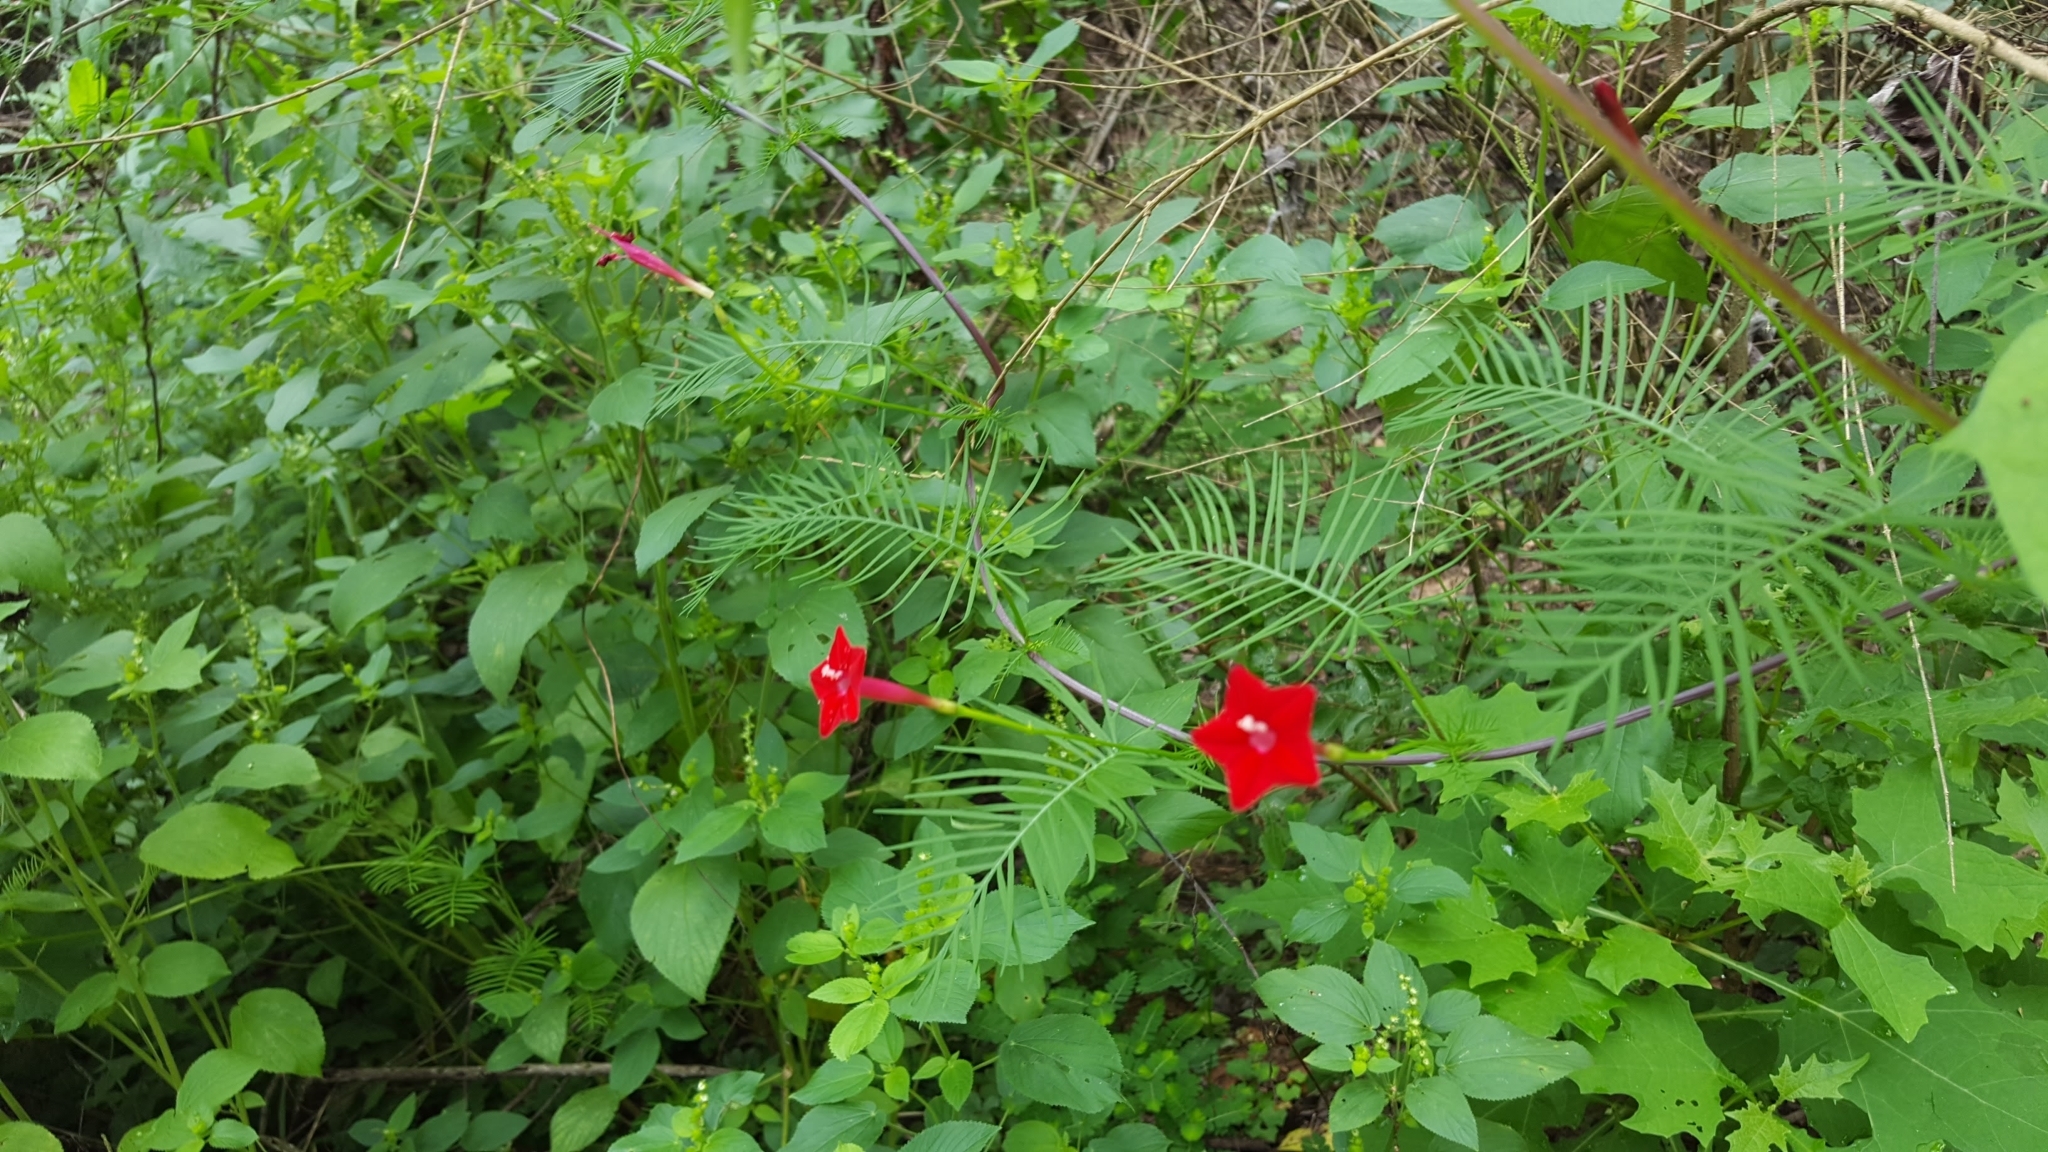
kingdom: Plantae
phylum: Tracheophyta
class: Magnoliopsida
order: Solanales
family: Convolvulaceae
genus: Ipomoea
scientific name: Ipomoea quamoclit
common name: Cypress vine
